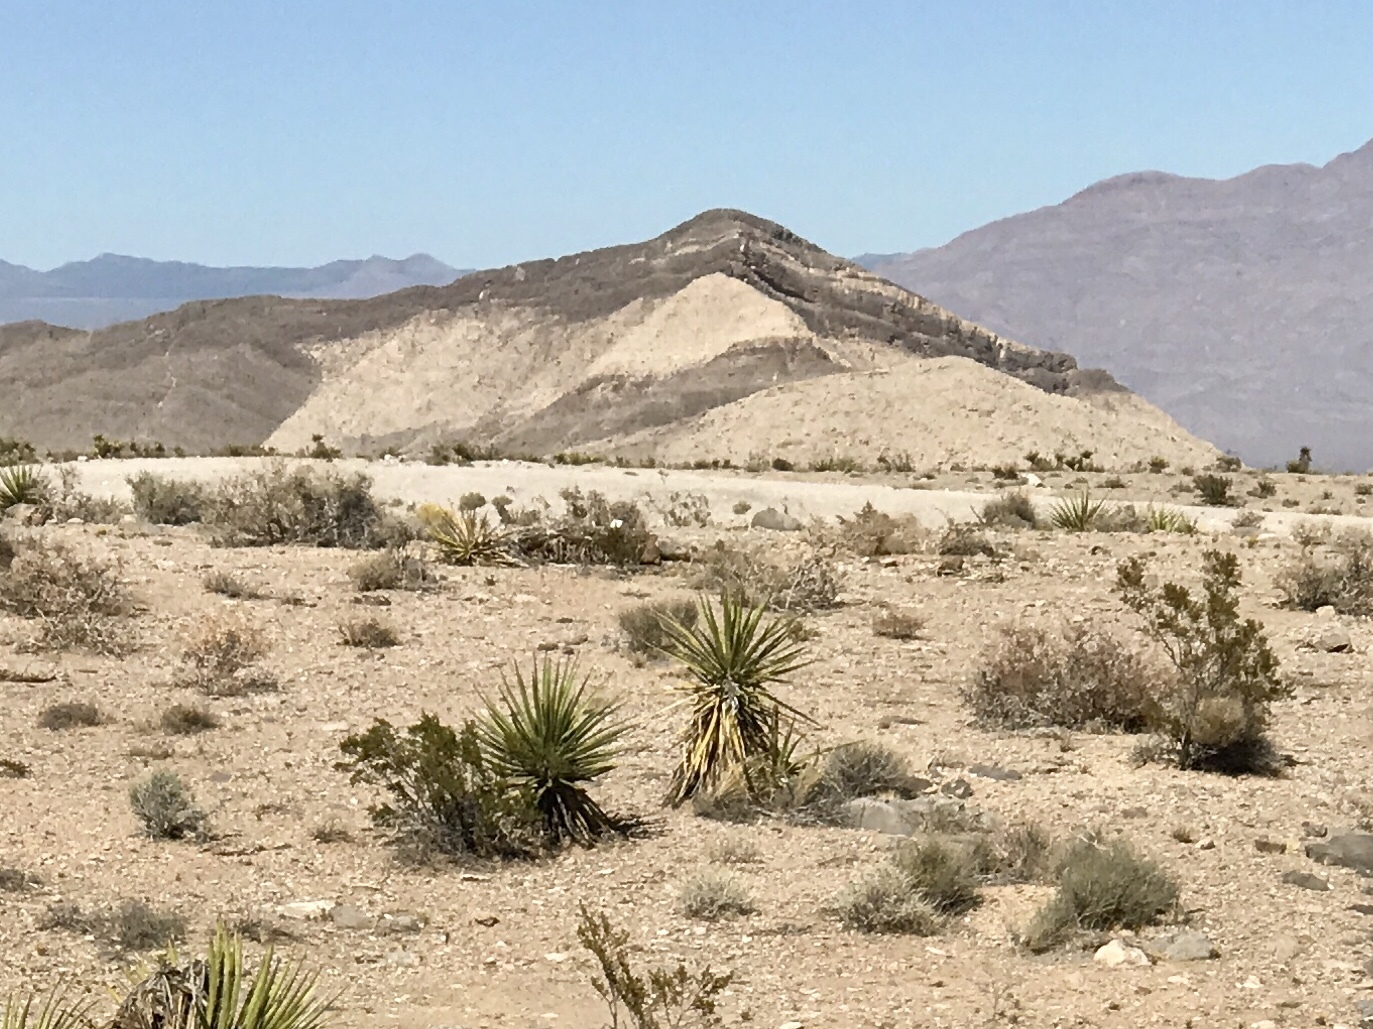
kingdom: Plantae
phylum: Tracheophyta
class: Liliopsida
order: Asparagales
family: Asparagaceae
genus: Yucca
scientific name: Yucca schidigera
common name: Mojave yucca
